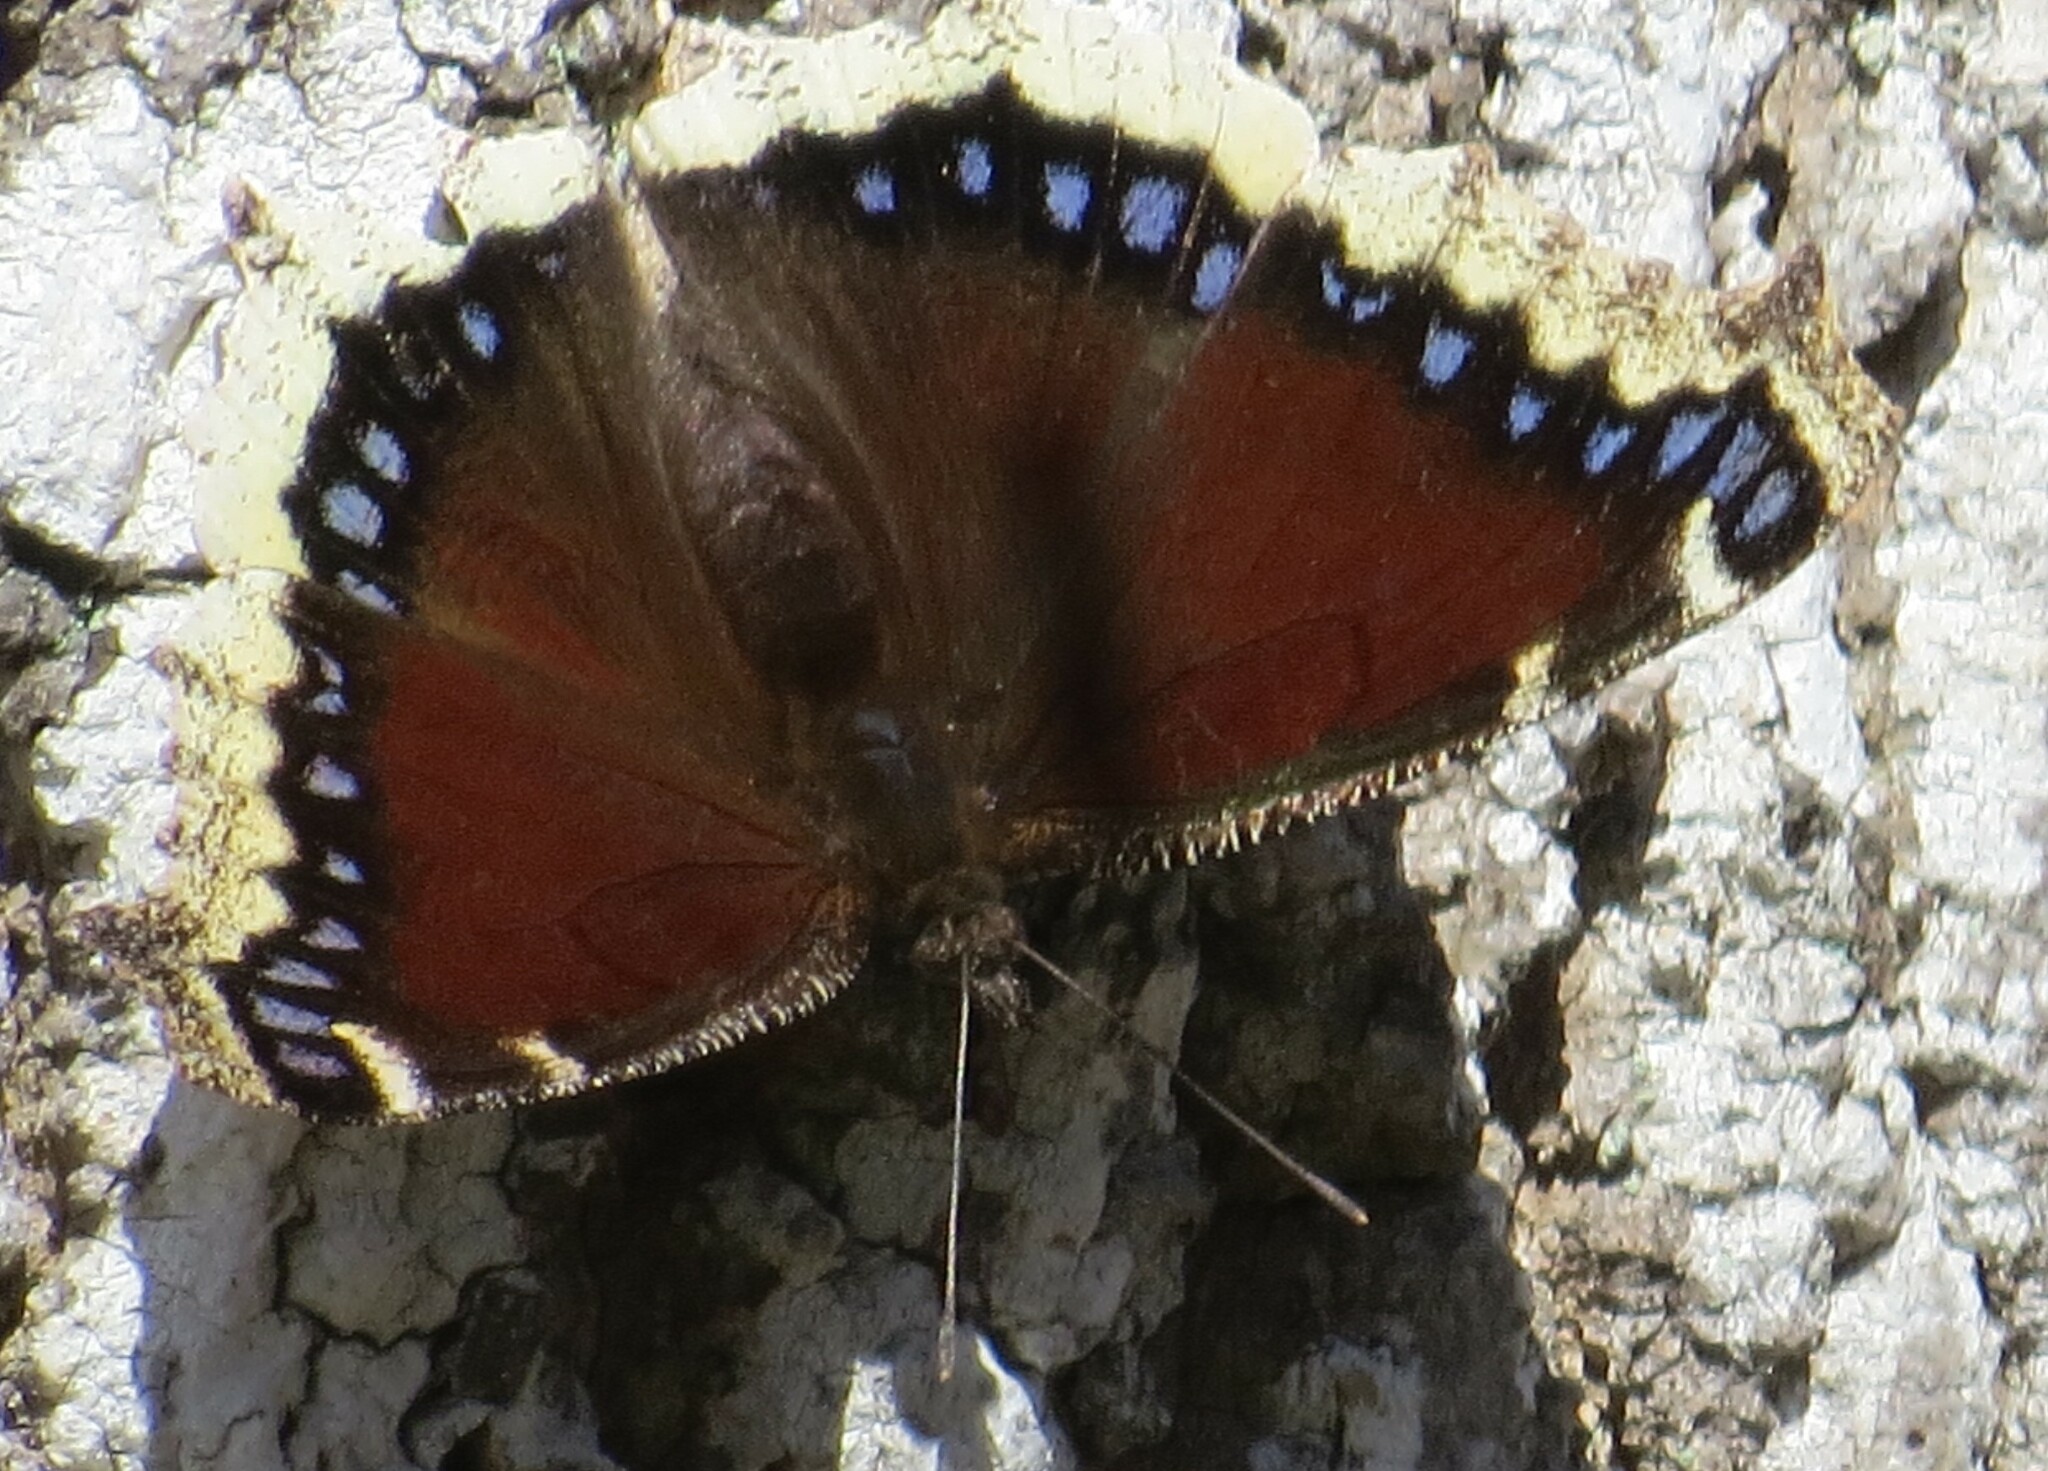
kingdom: Animalia
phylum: Arthropoda
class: Insecta
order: Lepidoptera
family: Nymphalidae
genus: Nymphalis
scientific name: Nymphalis antiopa
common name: Camberwell beauty
